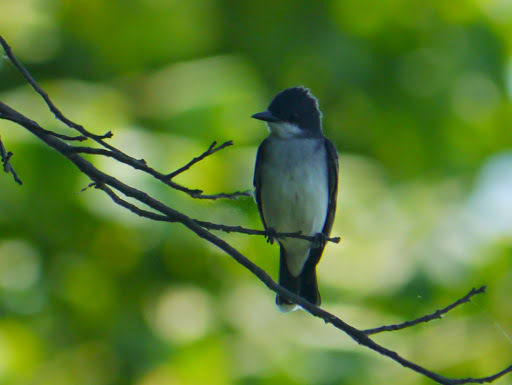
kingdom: Animalia
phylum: Chordata
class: Aves
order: Passeriformes
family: Tyrannidae
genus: Tyrannus
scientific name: Tyrannus tyrannus
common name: Eastern kingbird
